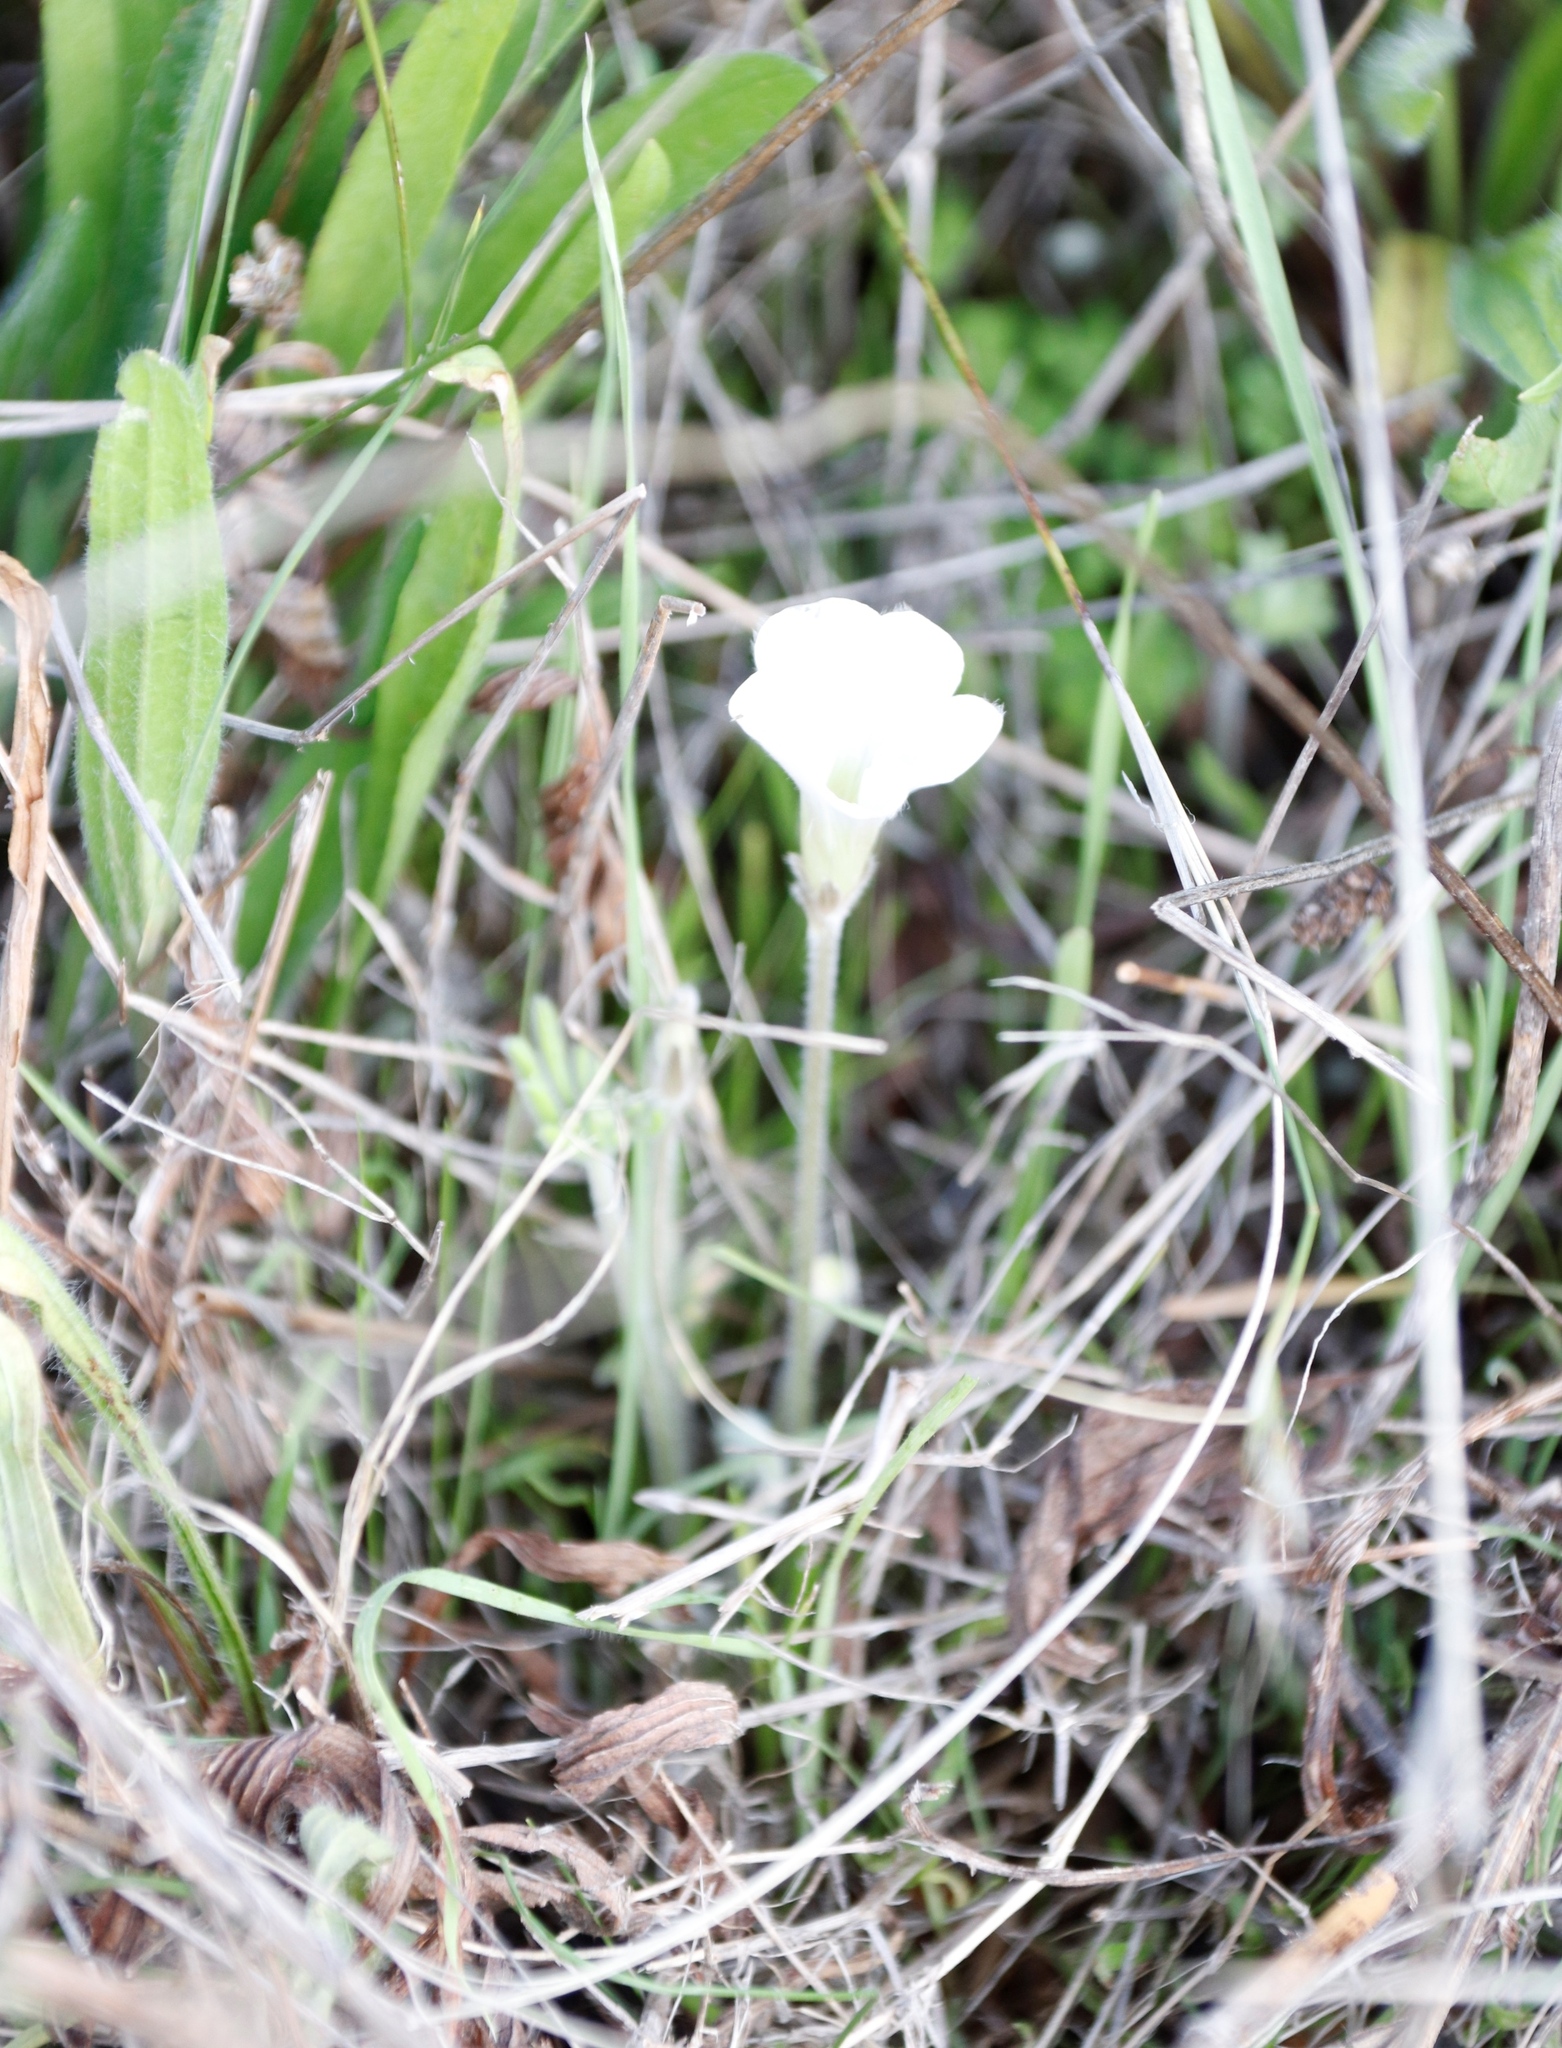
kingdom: Plantae
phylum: Tracheophyta
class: Magnoliopsida
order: Oxalidales
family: Oxalidaceae
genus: Oxalis
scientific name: Oxalis tomentosa
